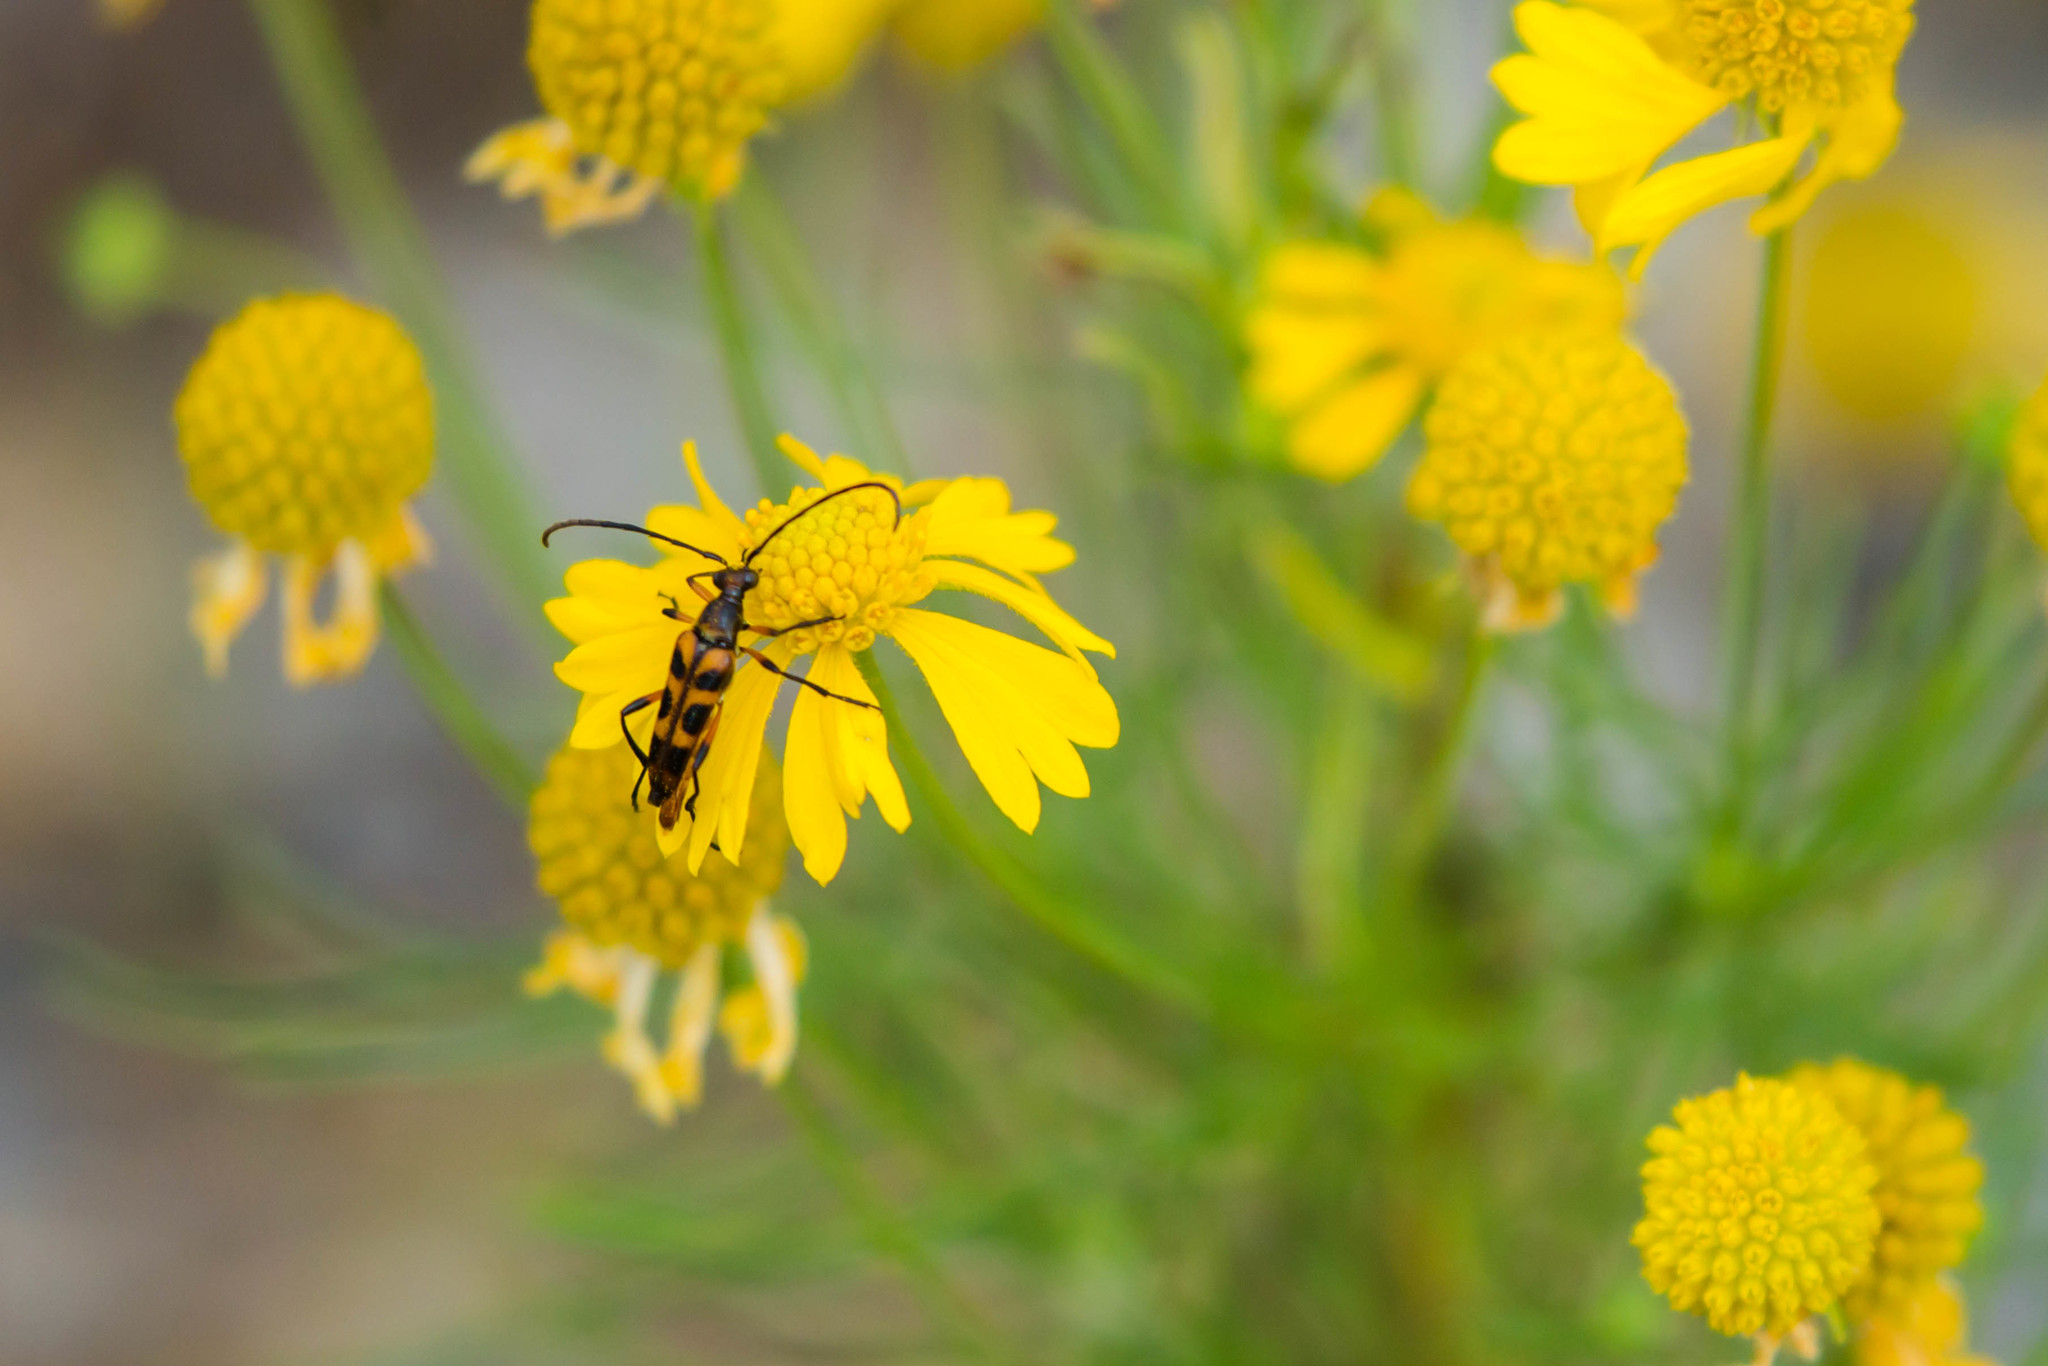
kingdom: Animalia
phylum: Arthropoda
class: Insecta
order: Coleoptera
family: Cerambycidae
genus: Strangalia
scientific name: Strangalia sexnotata
